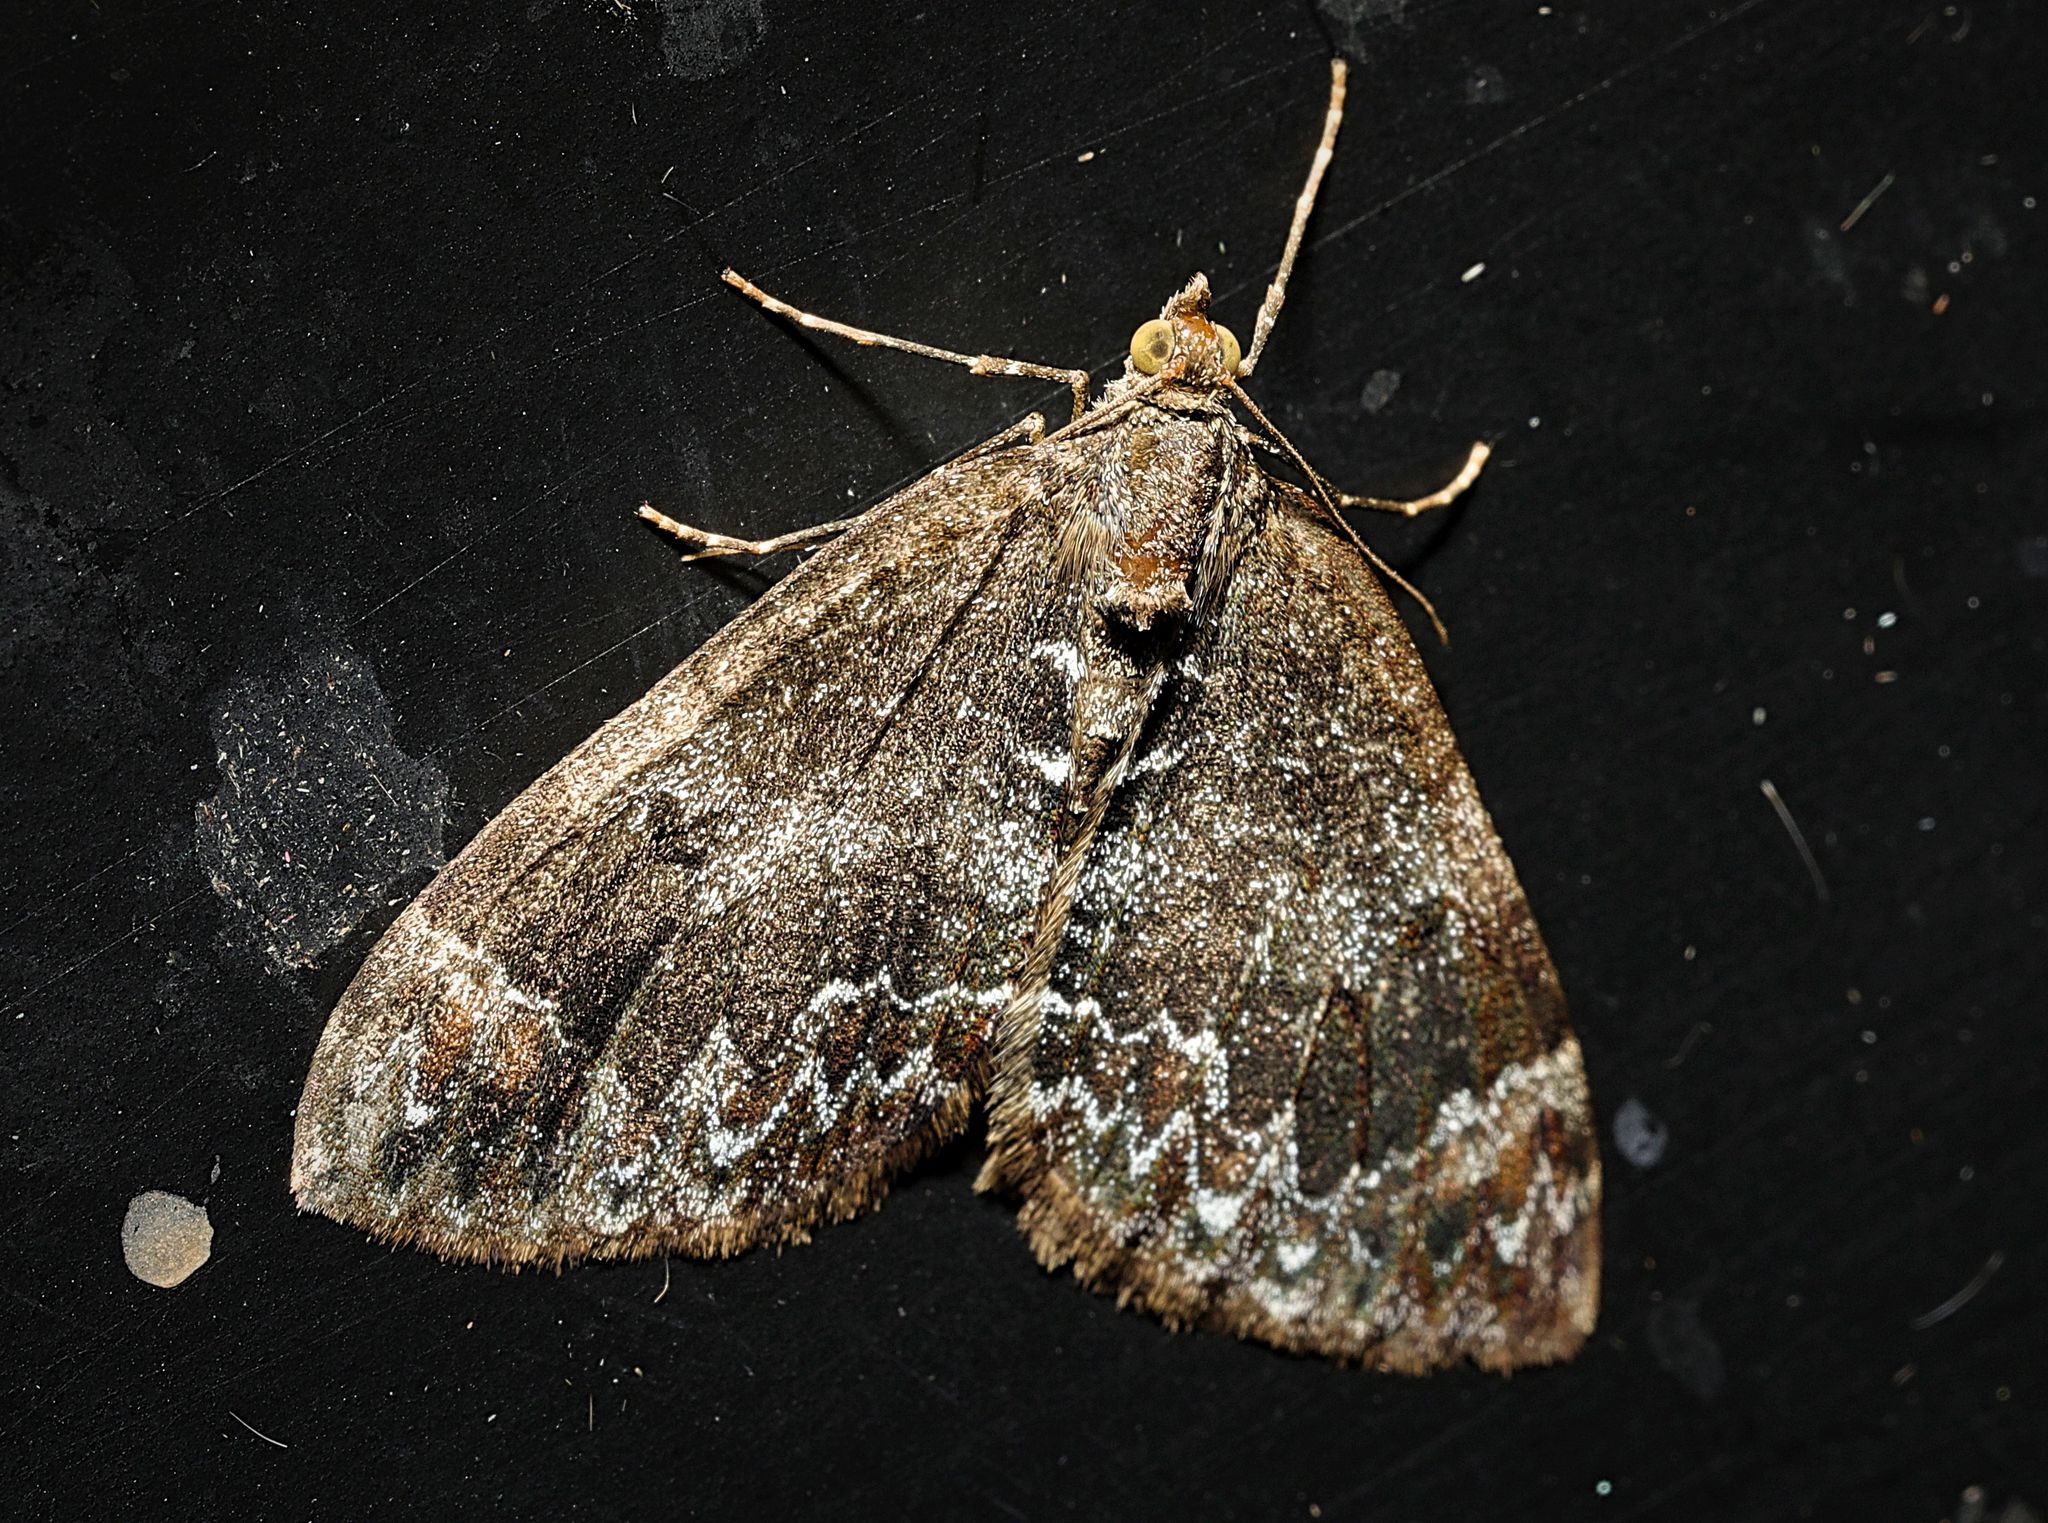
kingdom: Animalia
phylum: Arthropoda
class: Insecta
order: Lepidoptera
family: Geometridae
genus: Dysstroma
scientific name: Dysstroma truncata
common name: Common marbled carpet
